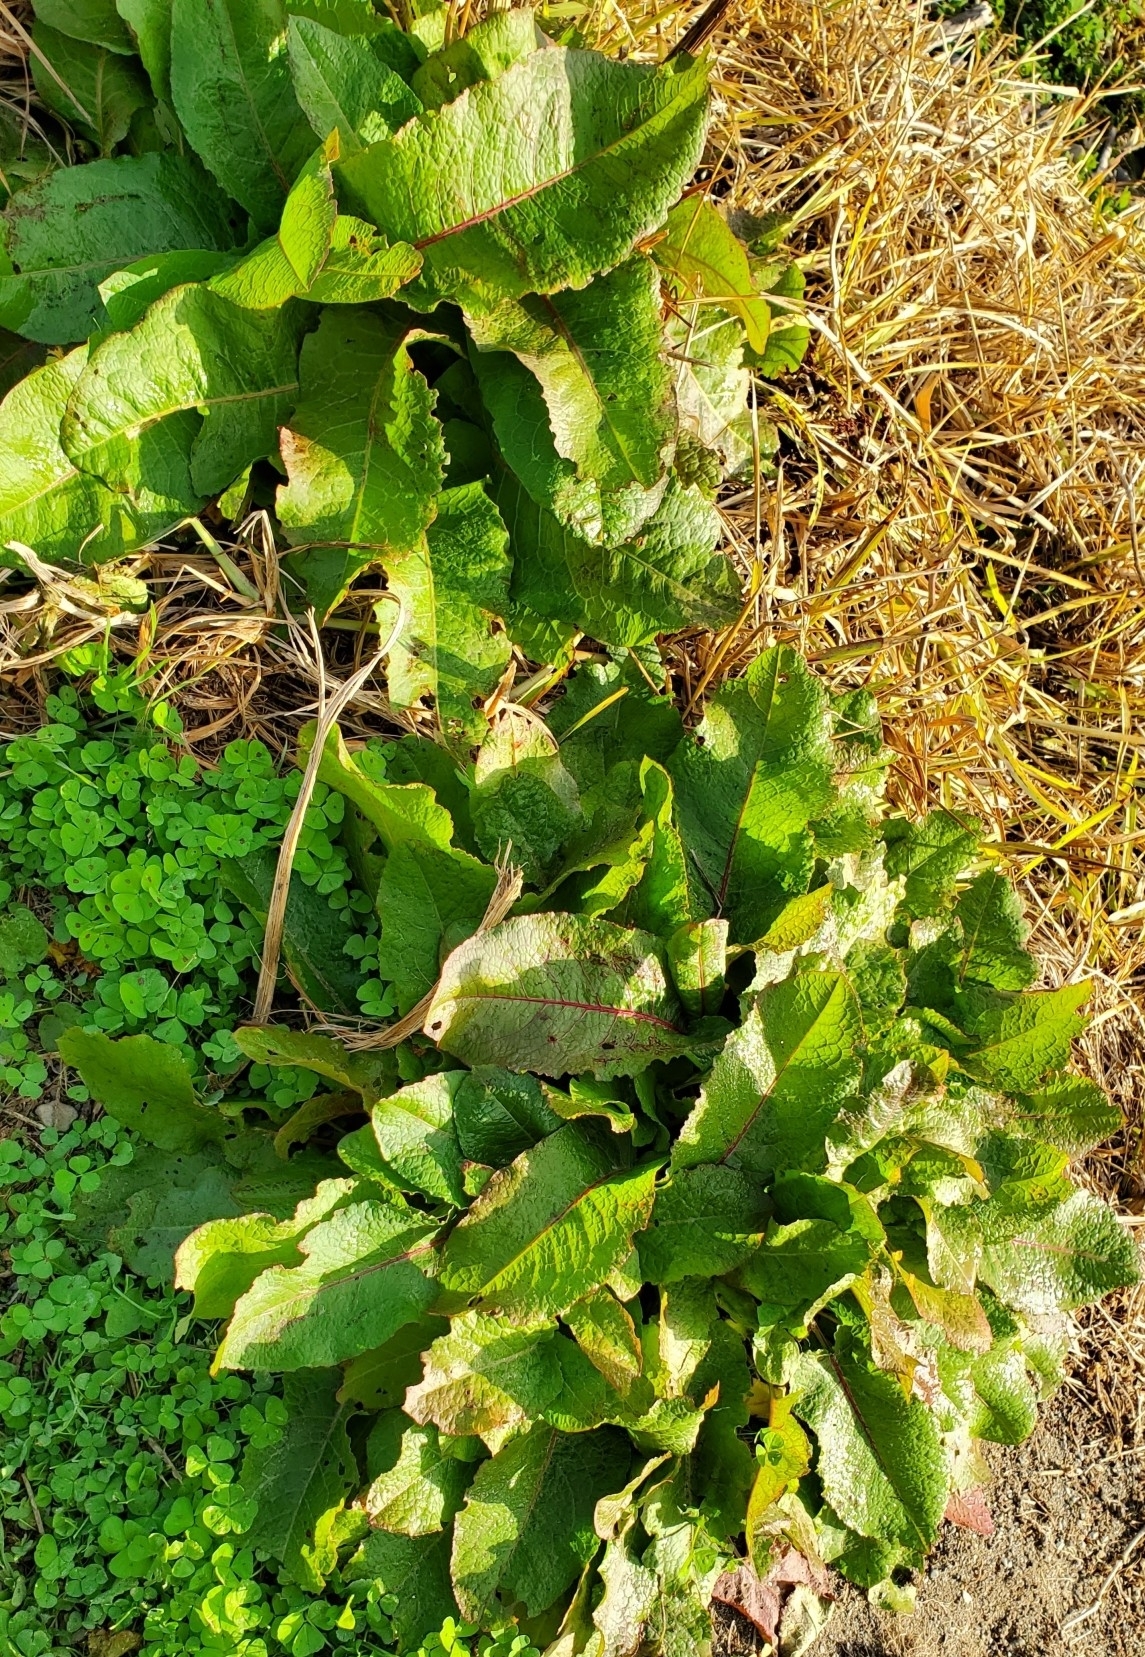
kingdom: Plantae
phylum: Tracheophyta
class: Magnoliopsida
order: Caryophyllales
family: Polygonaceae
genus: Rumex
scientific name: Rumex obtusifolius
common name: Bitter dock
